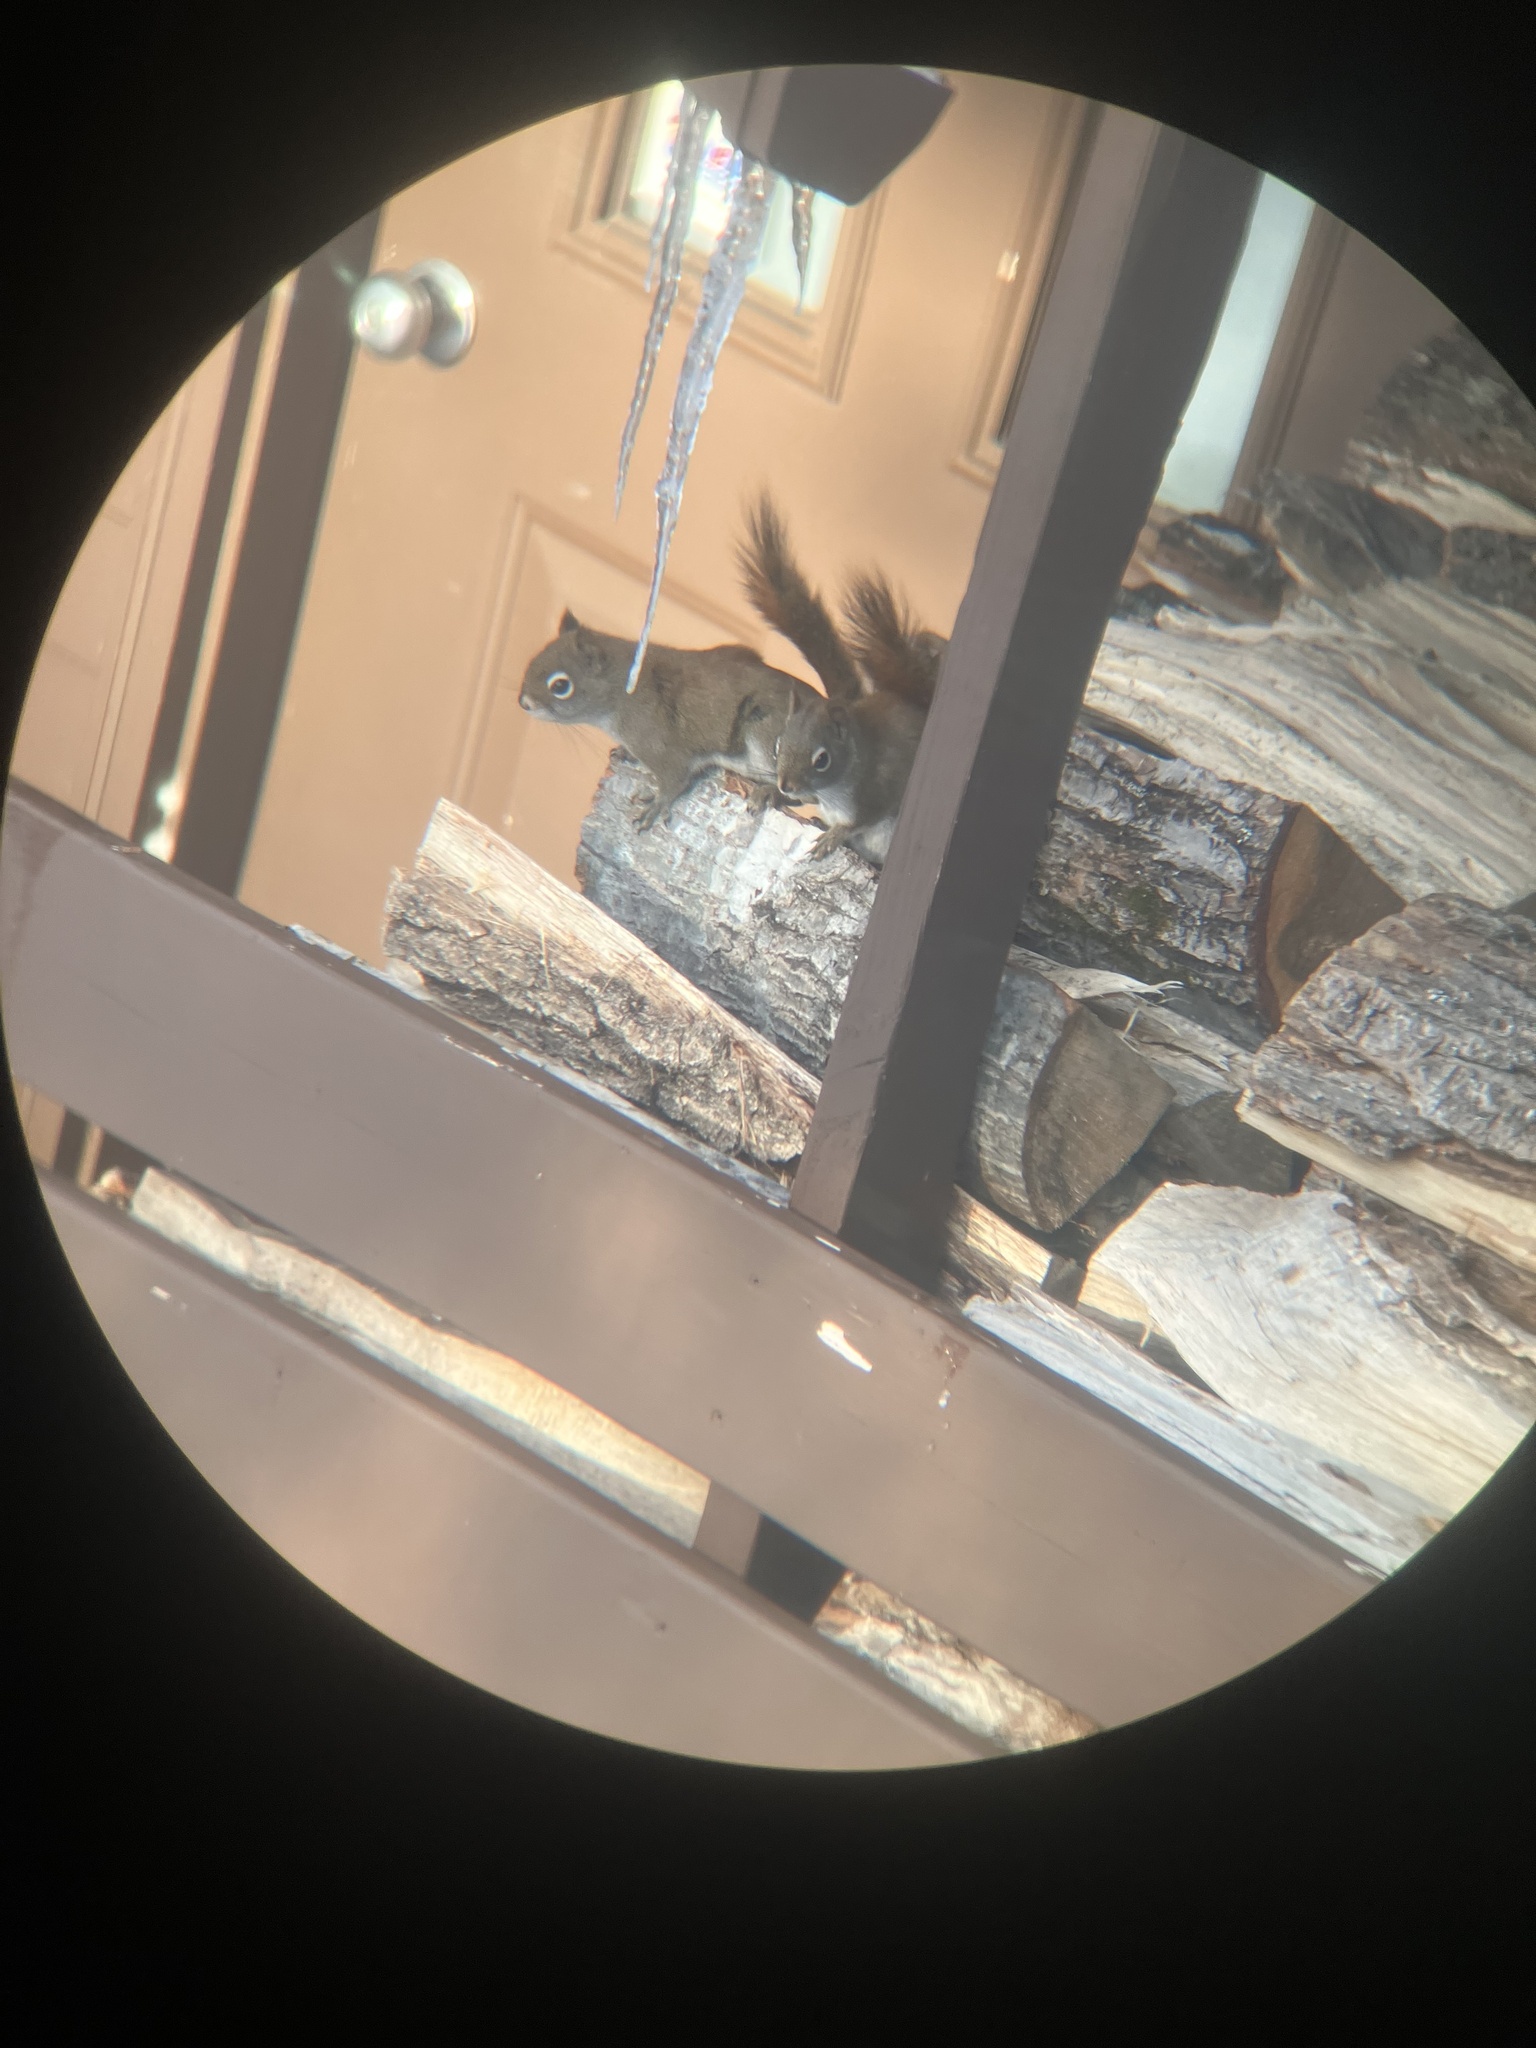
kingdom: Animalia
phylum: Chordata
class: Mammalia
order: Rodentia
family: Sciuridae
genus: Tamiasciurus
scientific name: Tamiasciurus hudsonicus
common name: Red squirrel
